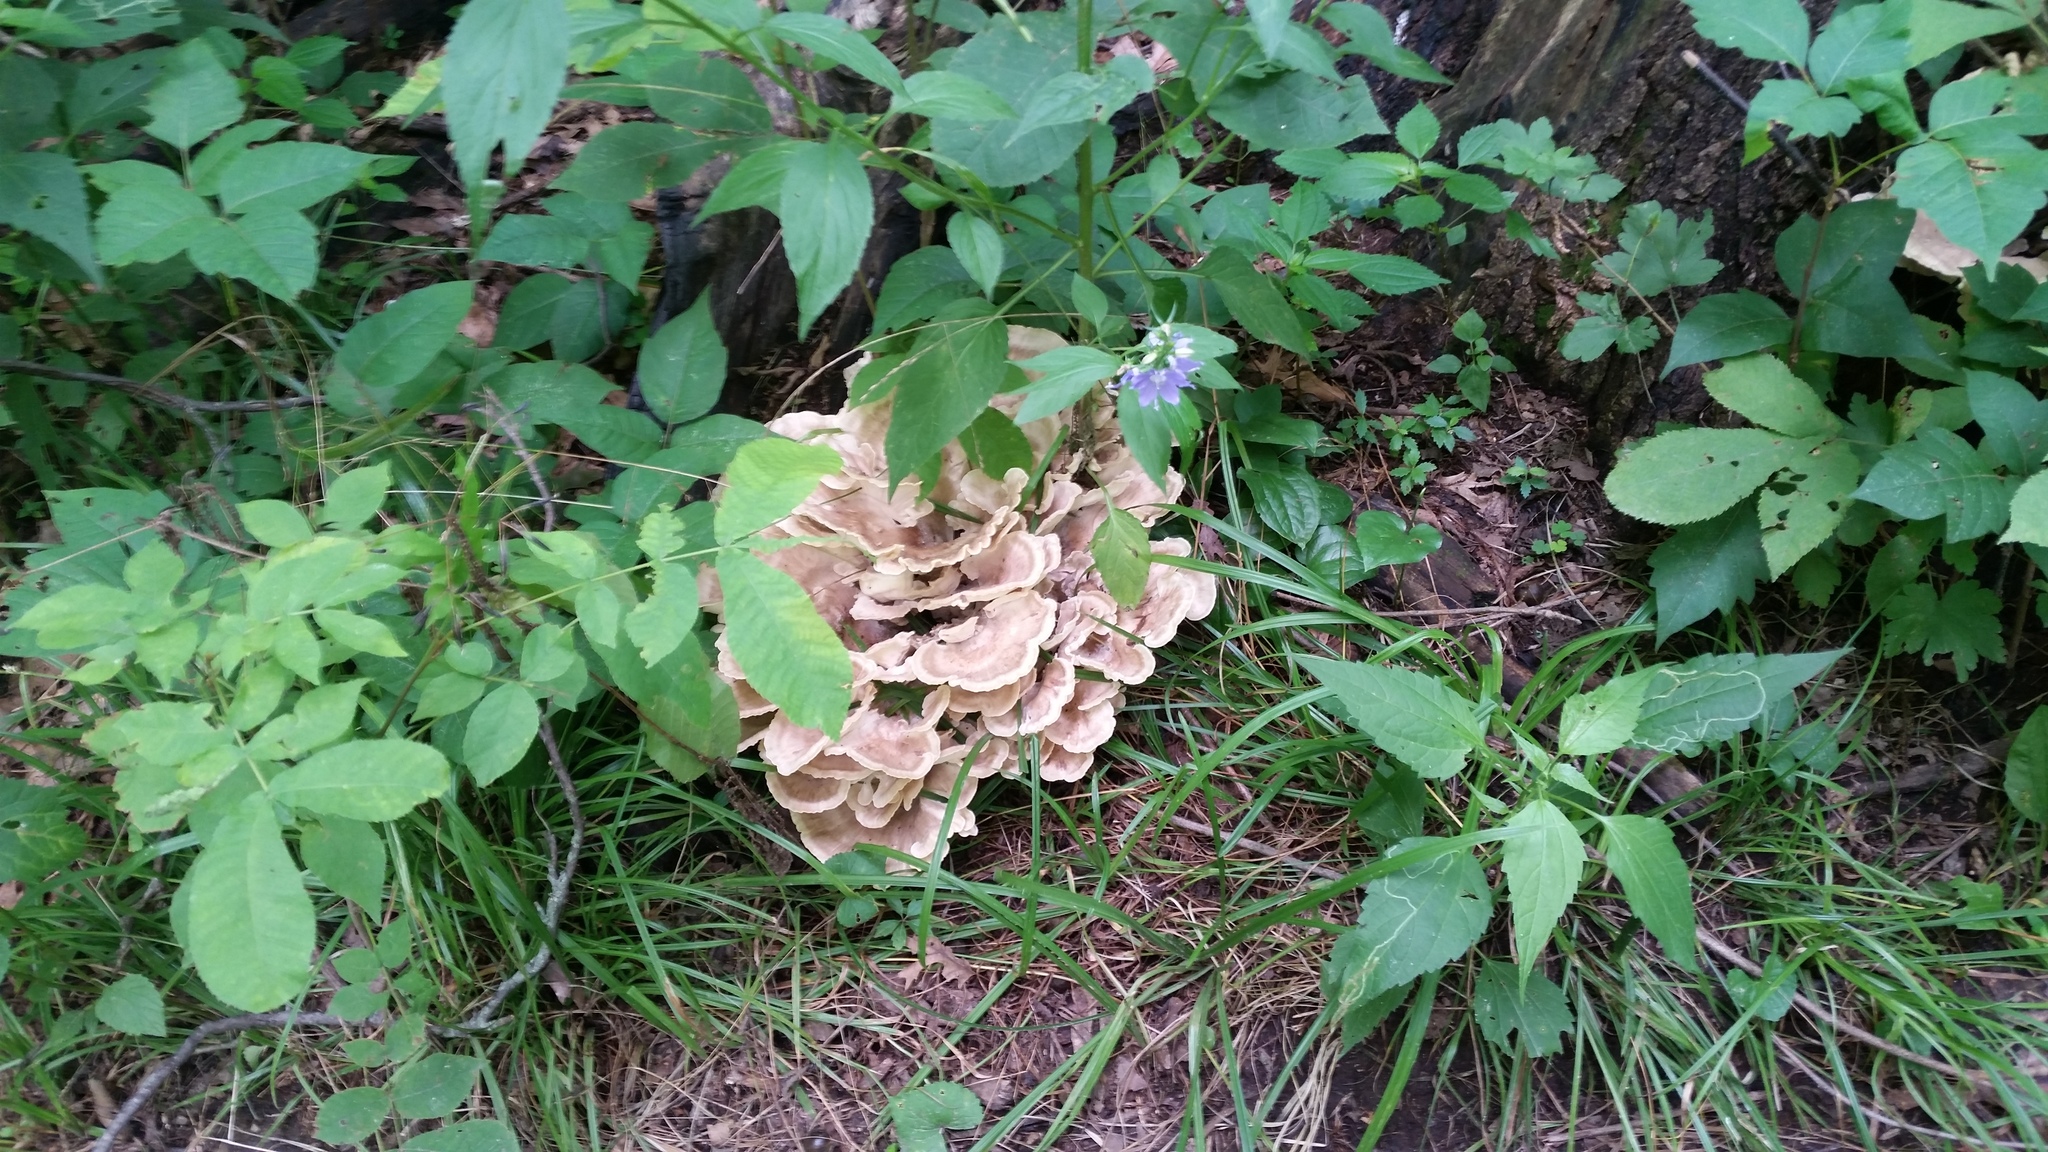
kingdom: Fungi
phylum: Basidiomycota
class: Agaricomycetes
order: Polyporales
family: Meripilaceae
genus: Meripilus
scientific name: Meripilus sumstinei
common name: Black-staining polypore
